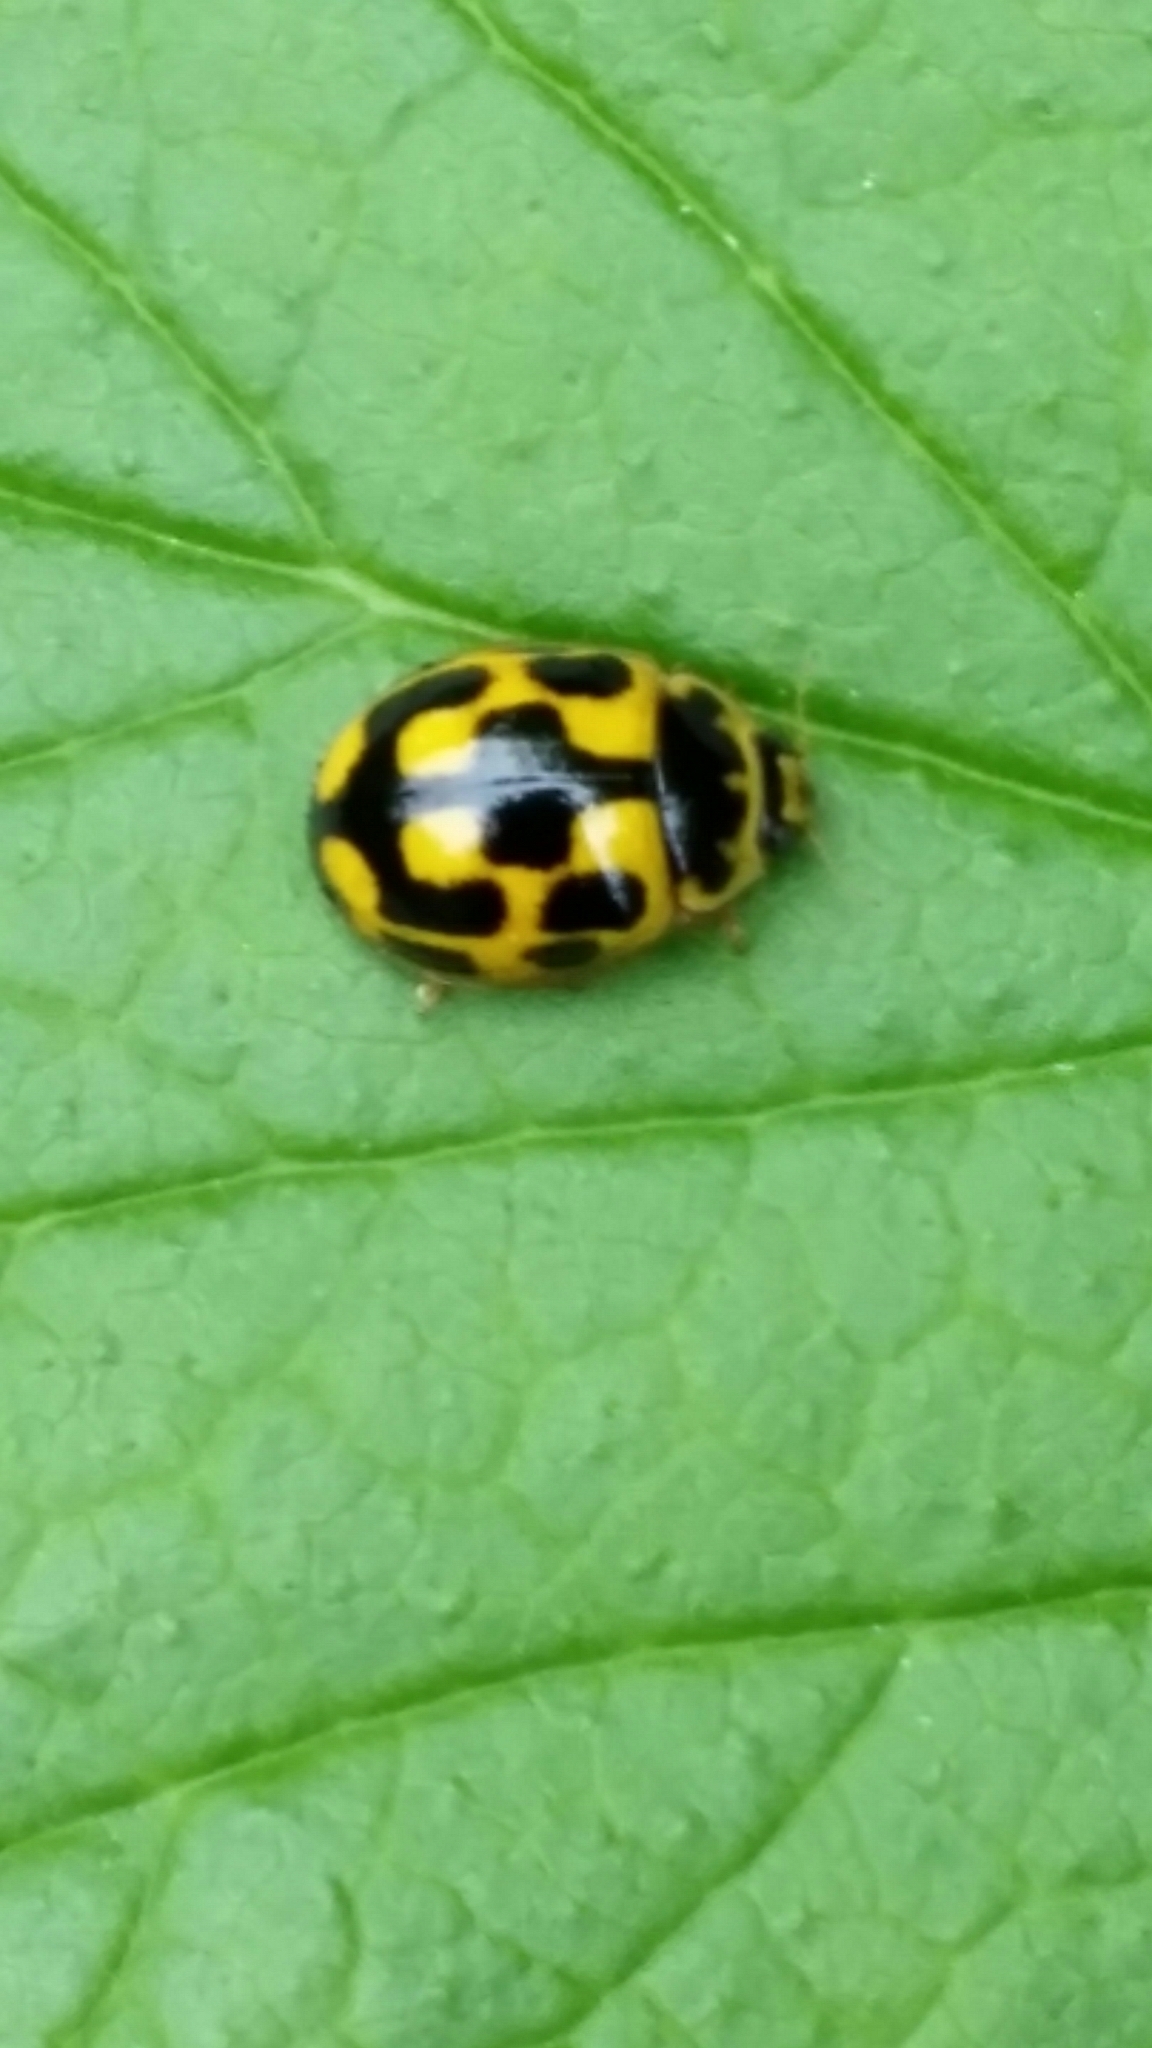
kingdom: Animalia
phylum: Arthropoda
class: Insecta
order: Coleoptera
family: Coccinellidae
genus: Propylaea
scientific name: Propylaea quatuordecimpunctata
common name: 14-spotted ladybird beetle
